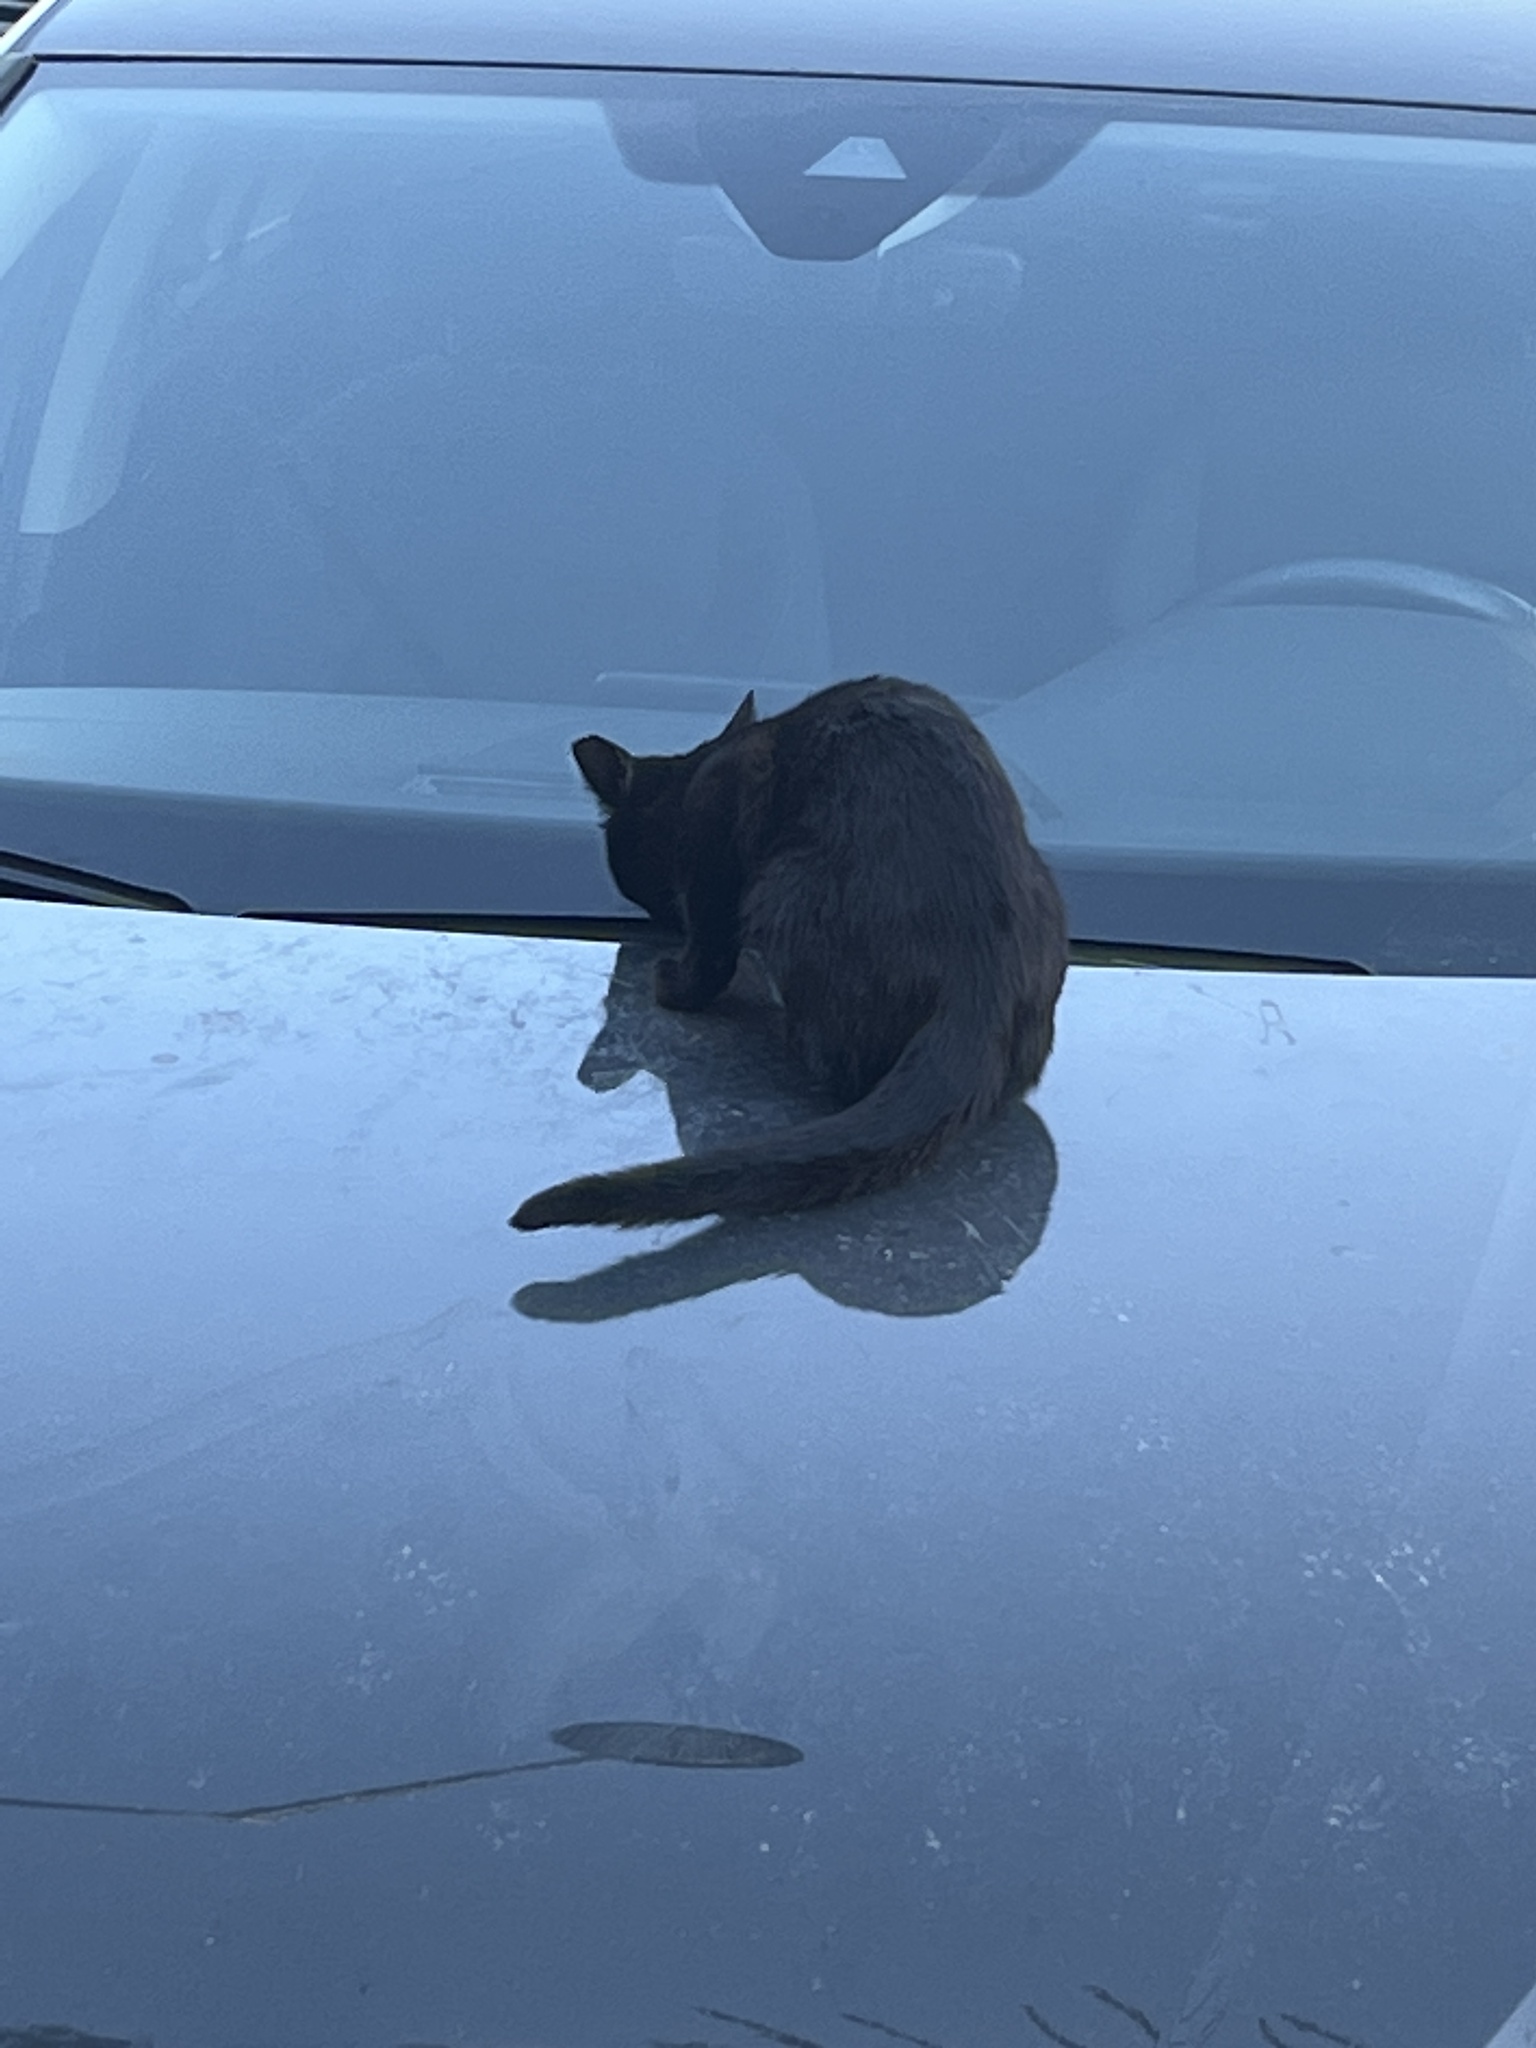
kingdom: Animalia
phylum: Chordata
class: Mammalia
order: Carnivora
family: Felidae
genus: Felis
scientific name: Felis catus
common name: Domestic cat
